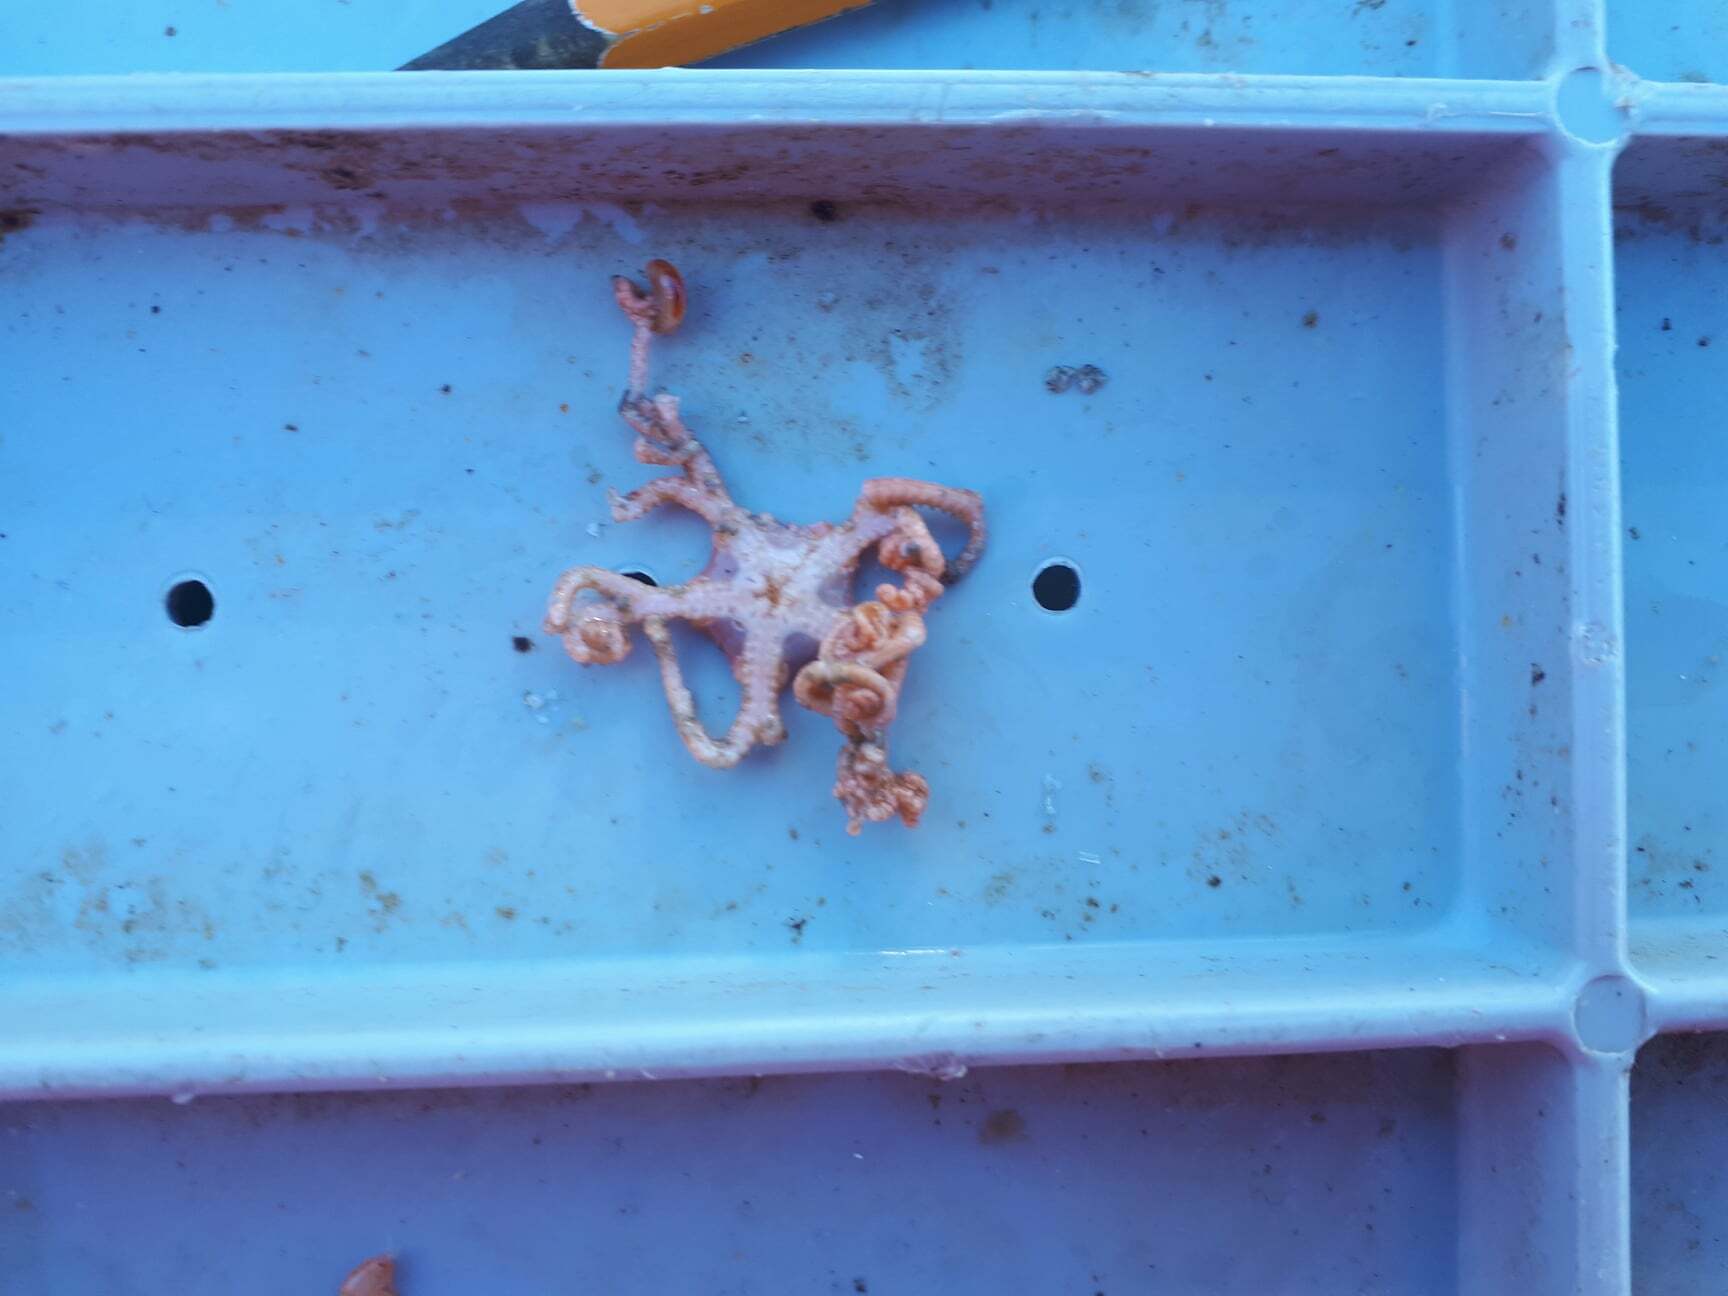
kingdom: Animalia
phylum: Echinodermata
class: Ophiuroidea
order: Euryalida
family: Gorgonocephalidae
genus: Gorgonocephalus
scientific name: Gorgonocephalus arcticus
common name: Northern basket star
